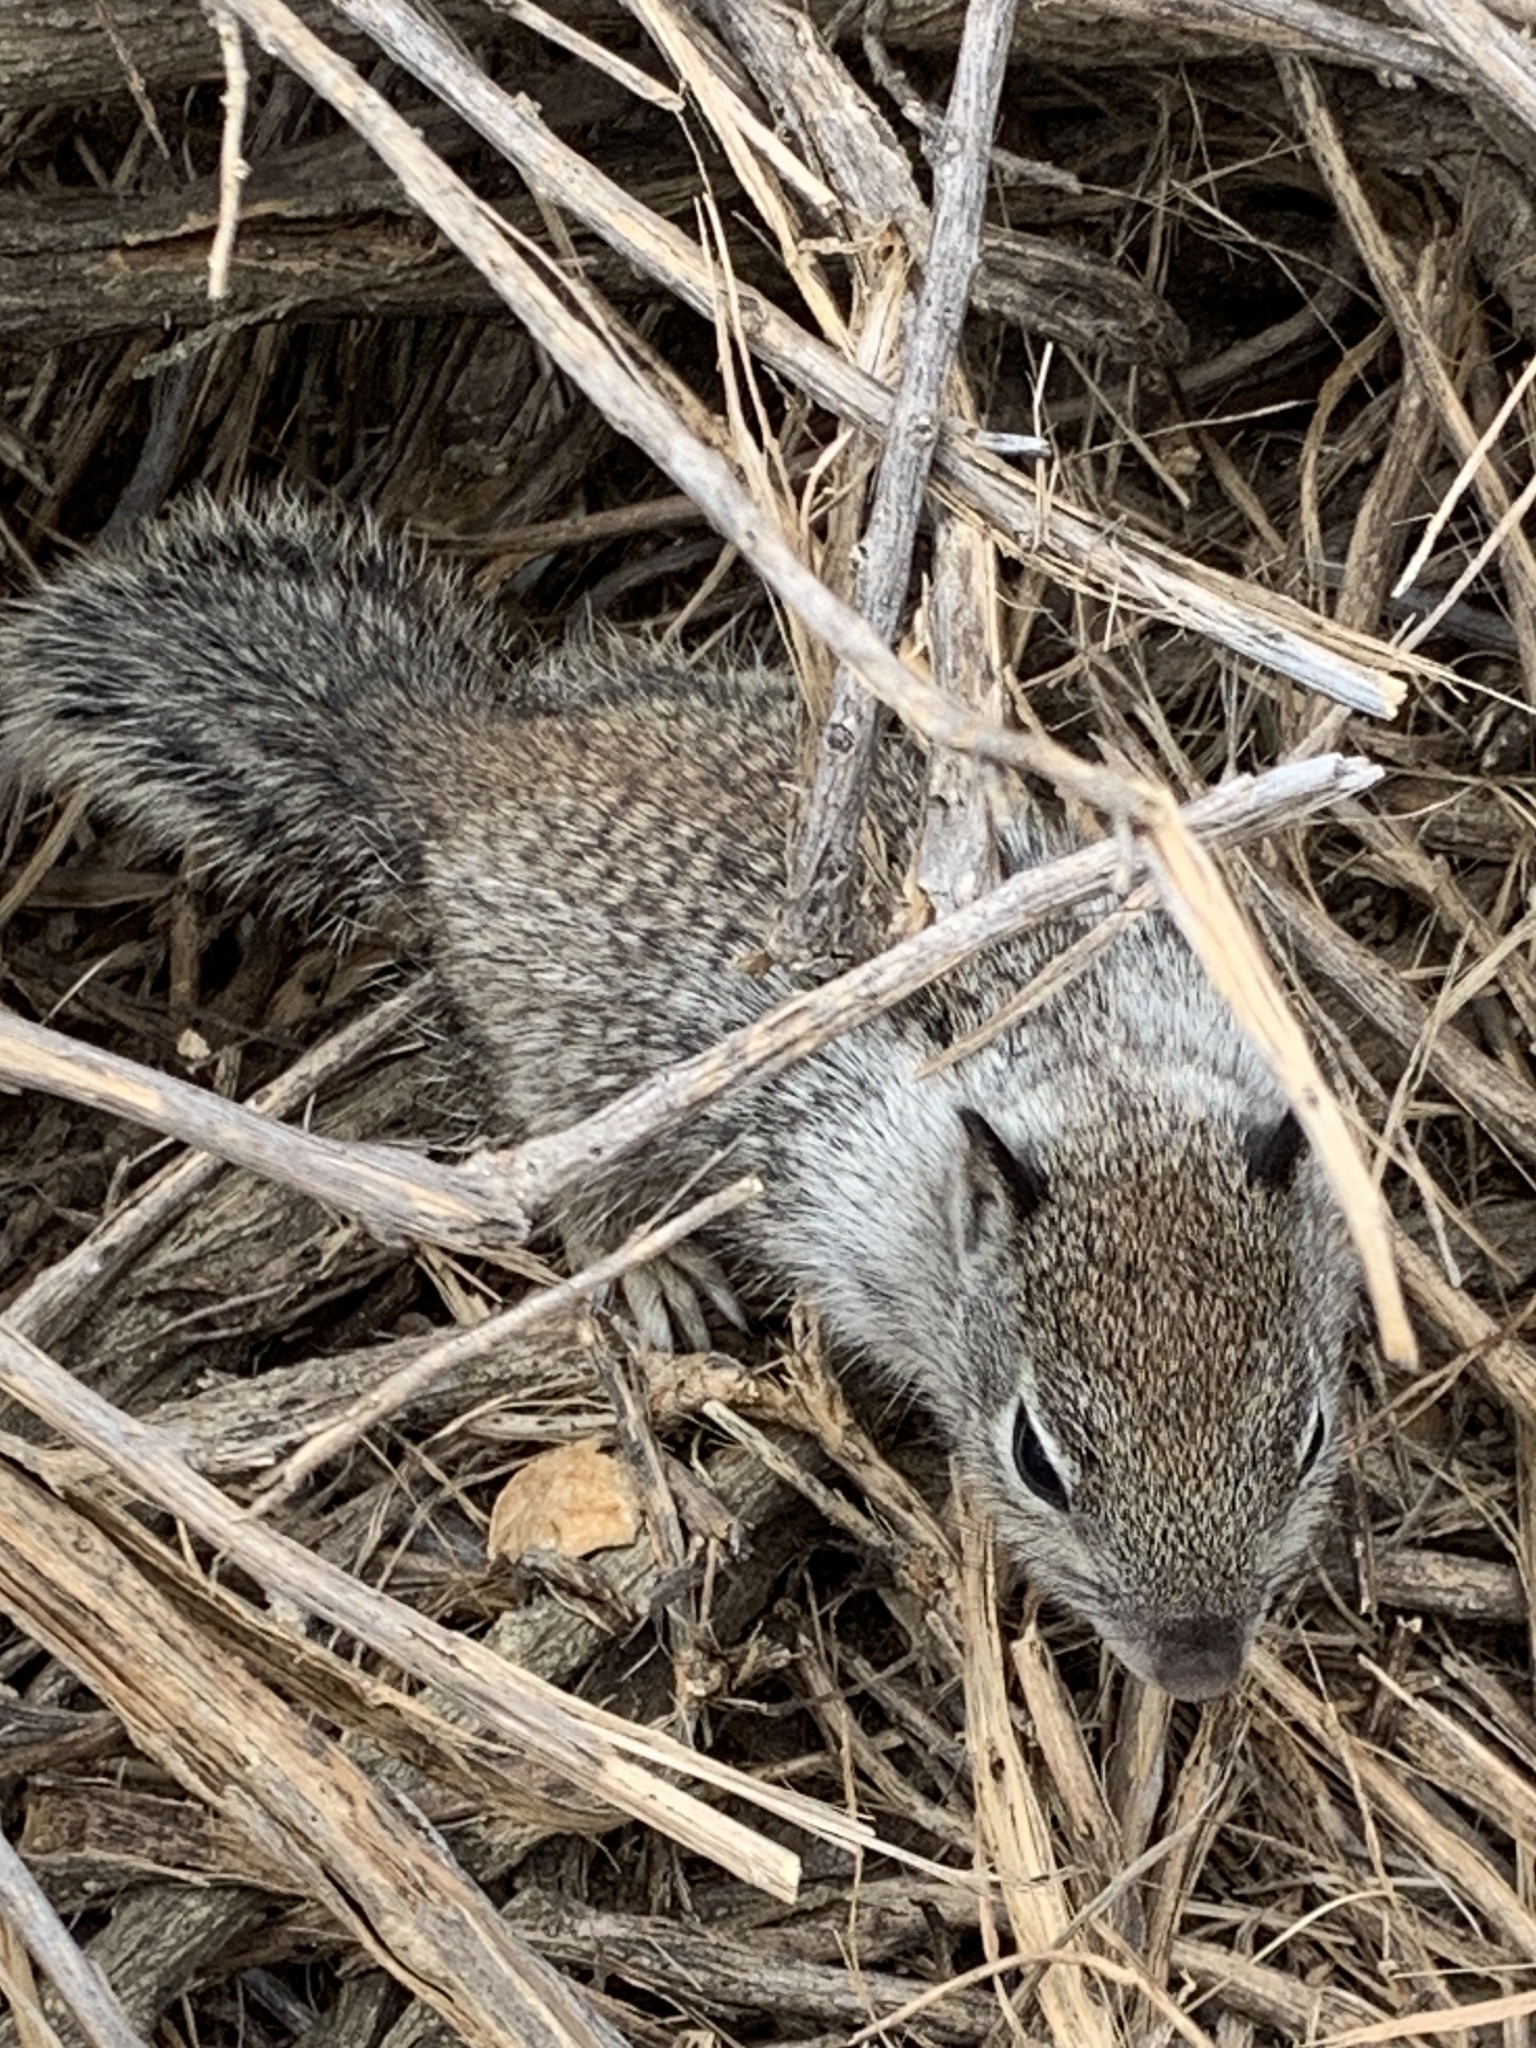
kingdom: Animalia
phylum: Chordata
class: Mammalia
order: Rodentia
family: Sciuridae
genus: Otospermophilus
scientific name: Otospermophilus beecheyi
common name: California ground squirrel
